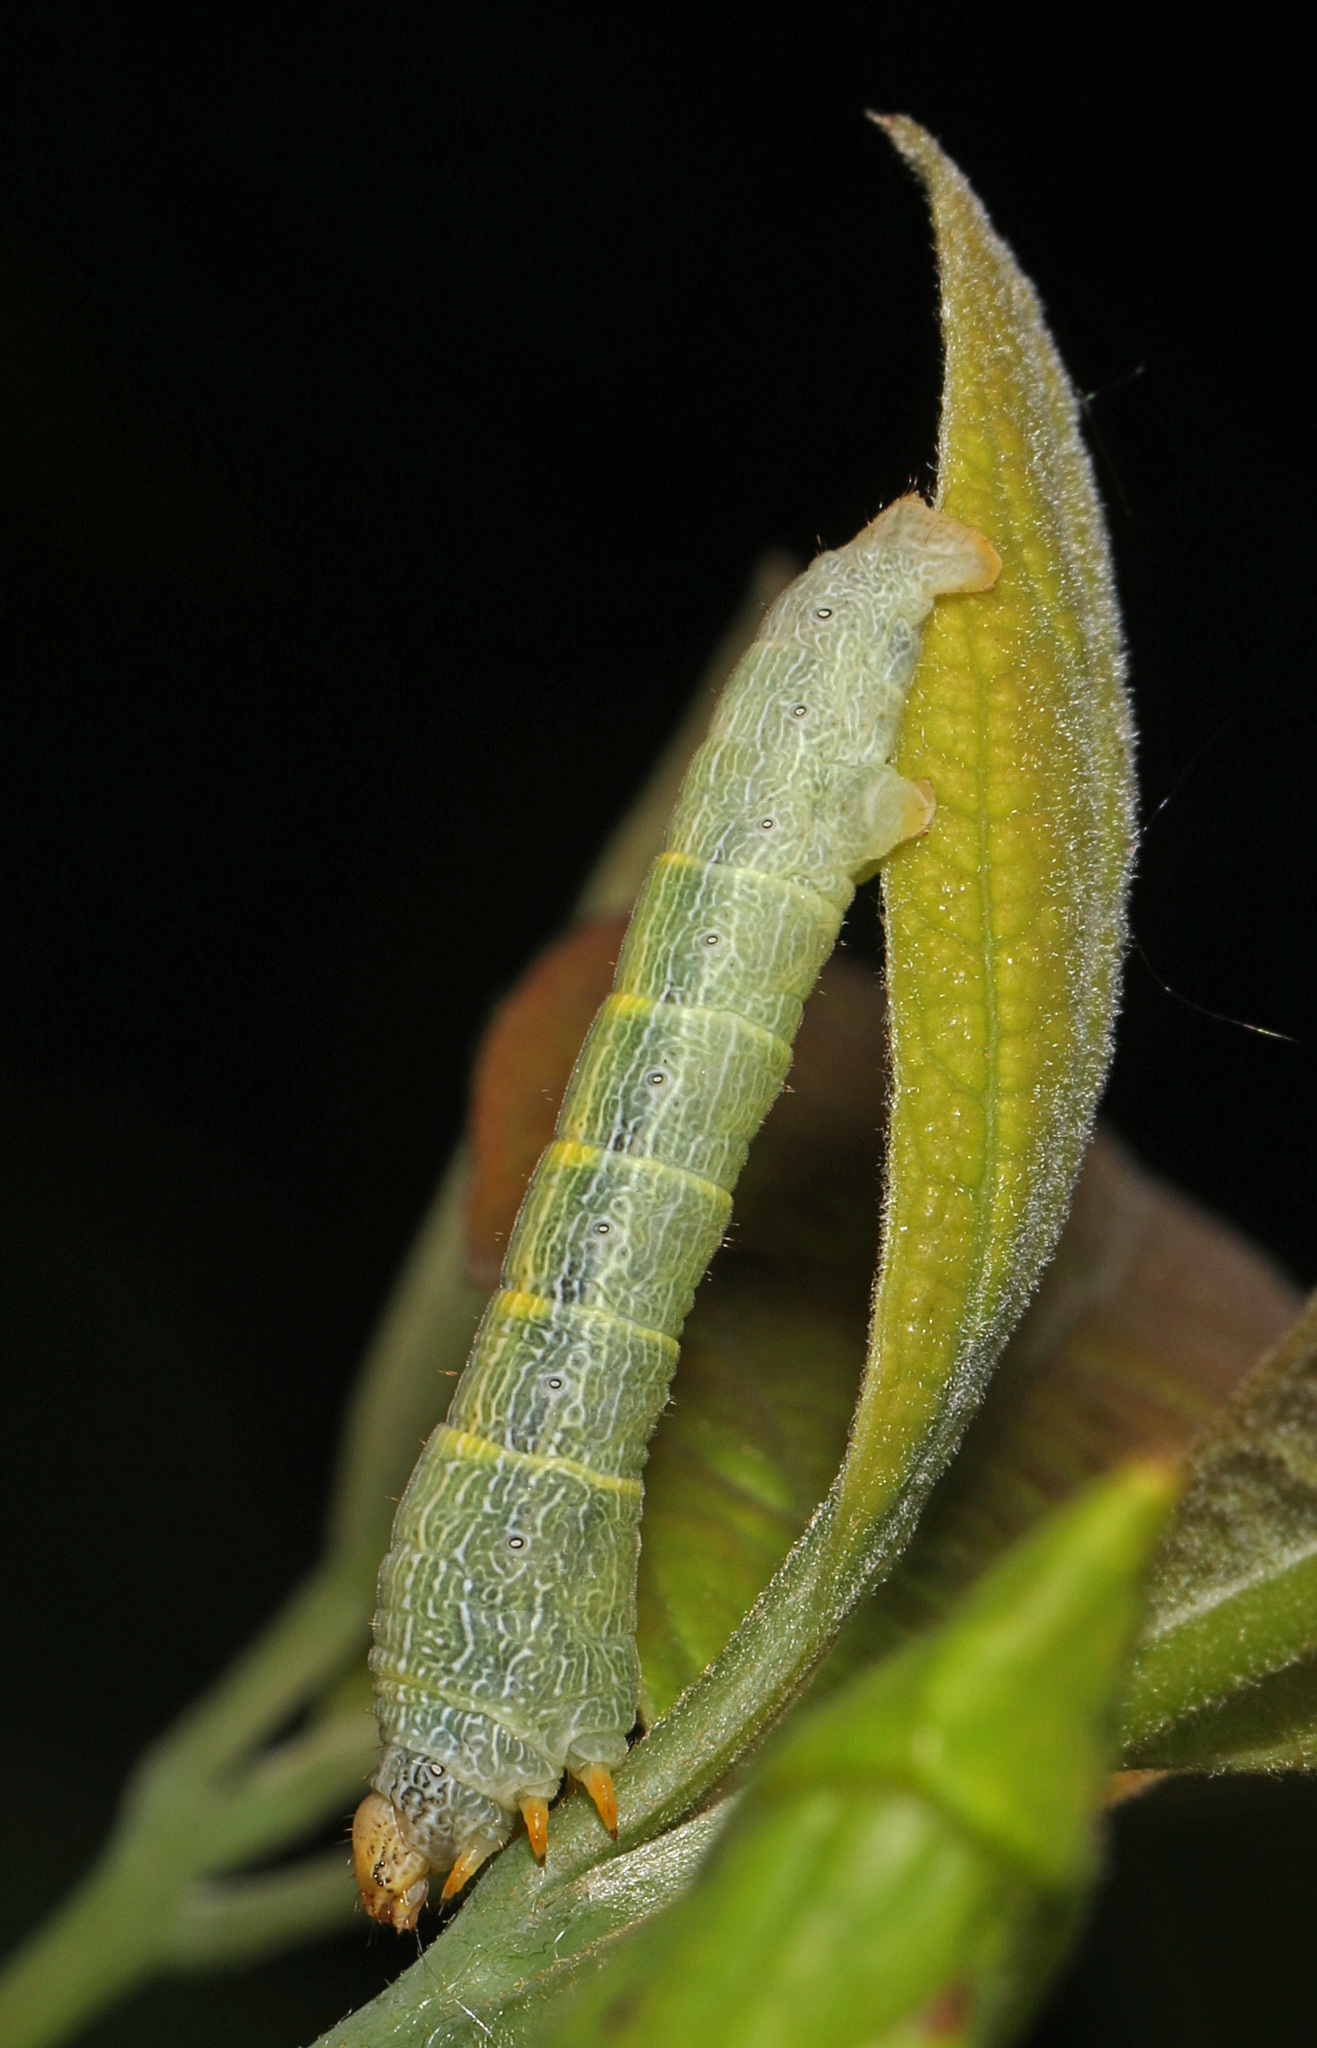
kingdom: Animalia
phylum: Arthropoda
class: Insecta
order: Lepidoptera
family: Geometridae
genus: Epimecis
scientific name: Epimecis hortaria
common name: Tulip-tree beauty
